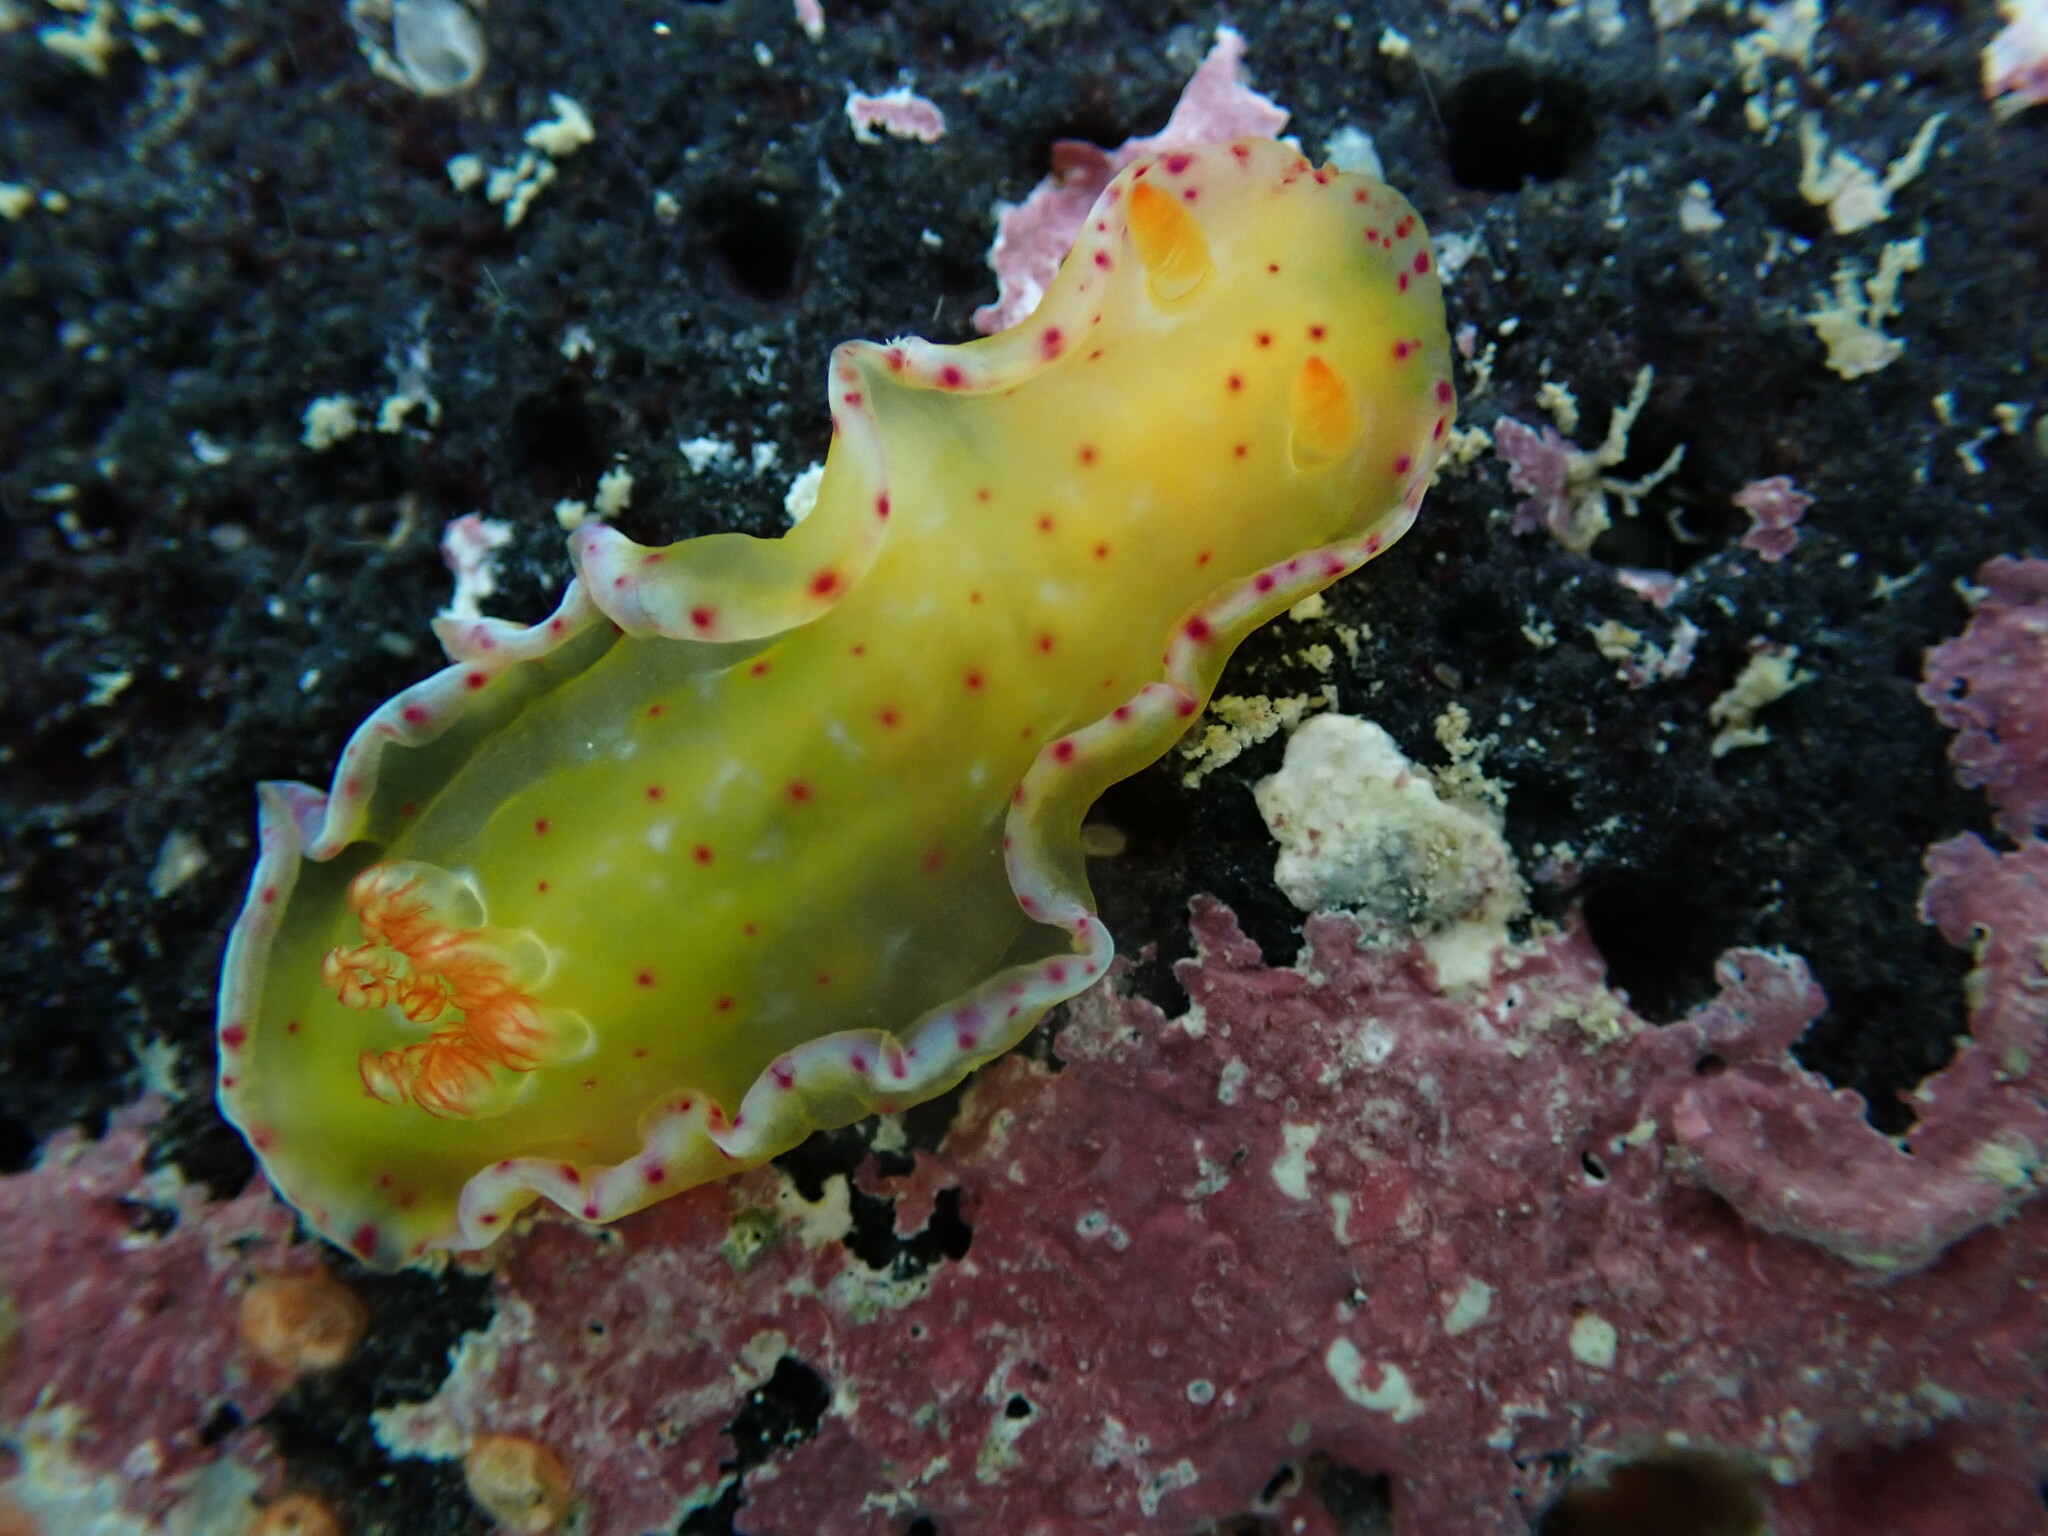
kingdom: Animalia
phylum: Mollusca
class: Gastropoda
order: Nudibranchia
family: Hexabranchidae
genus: Hexabranchus
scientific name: Hexabranchus sandwichensis
